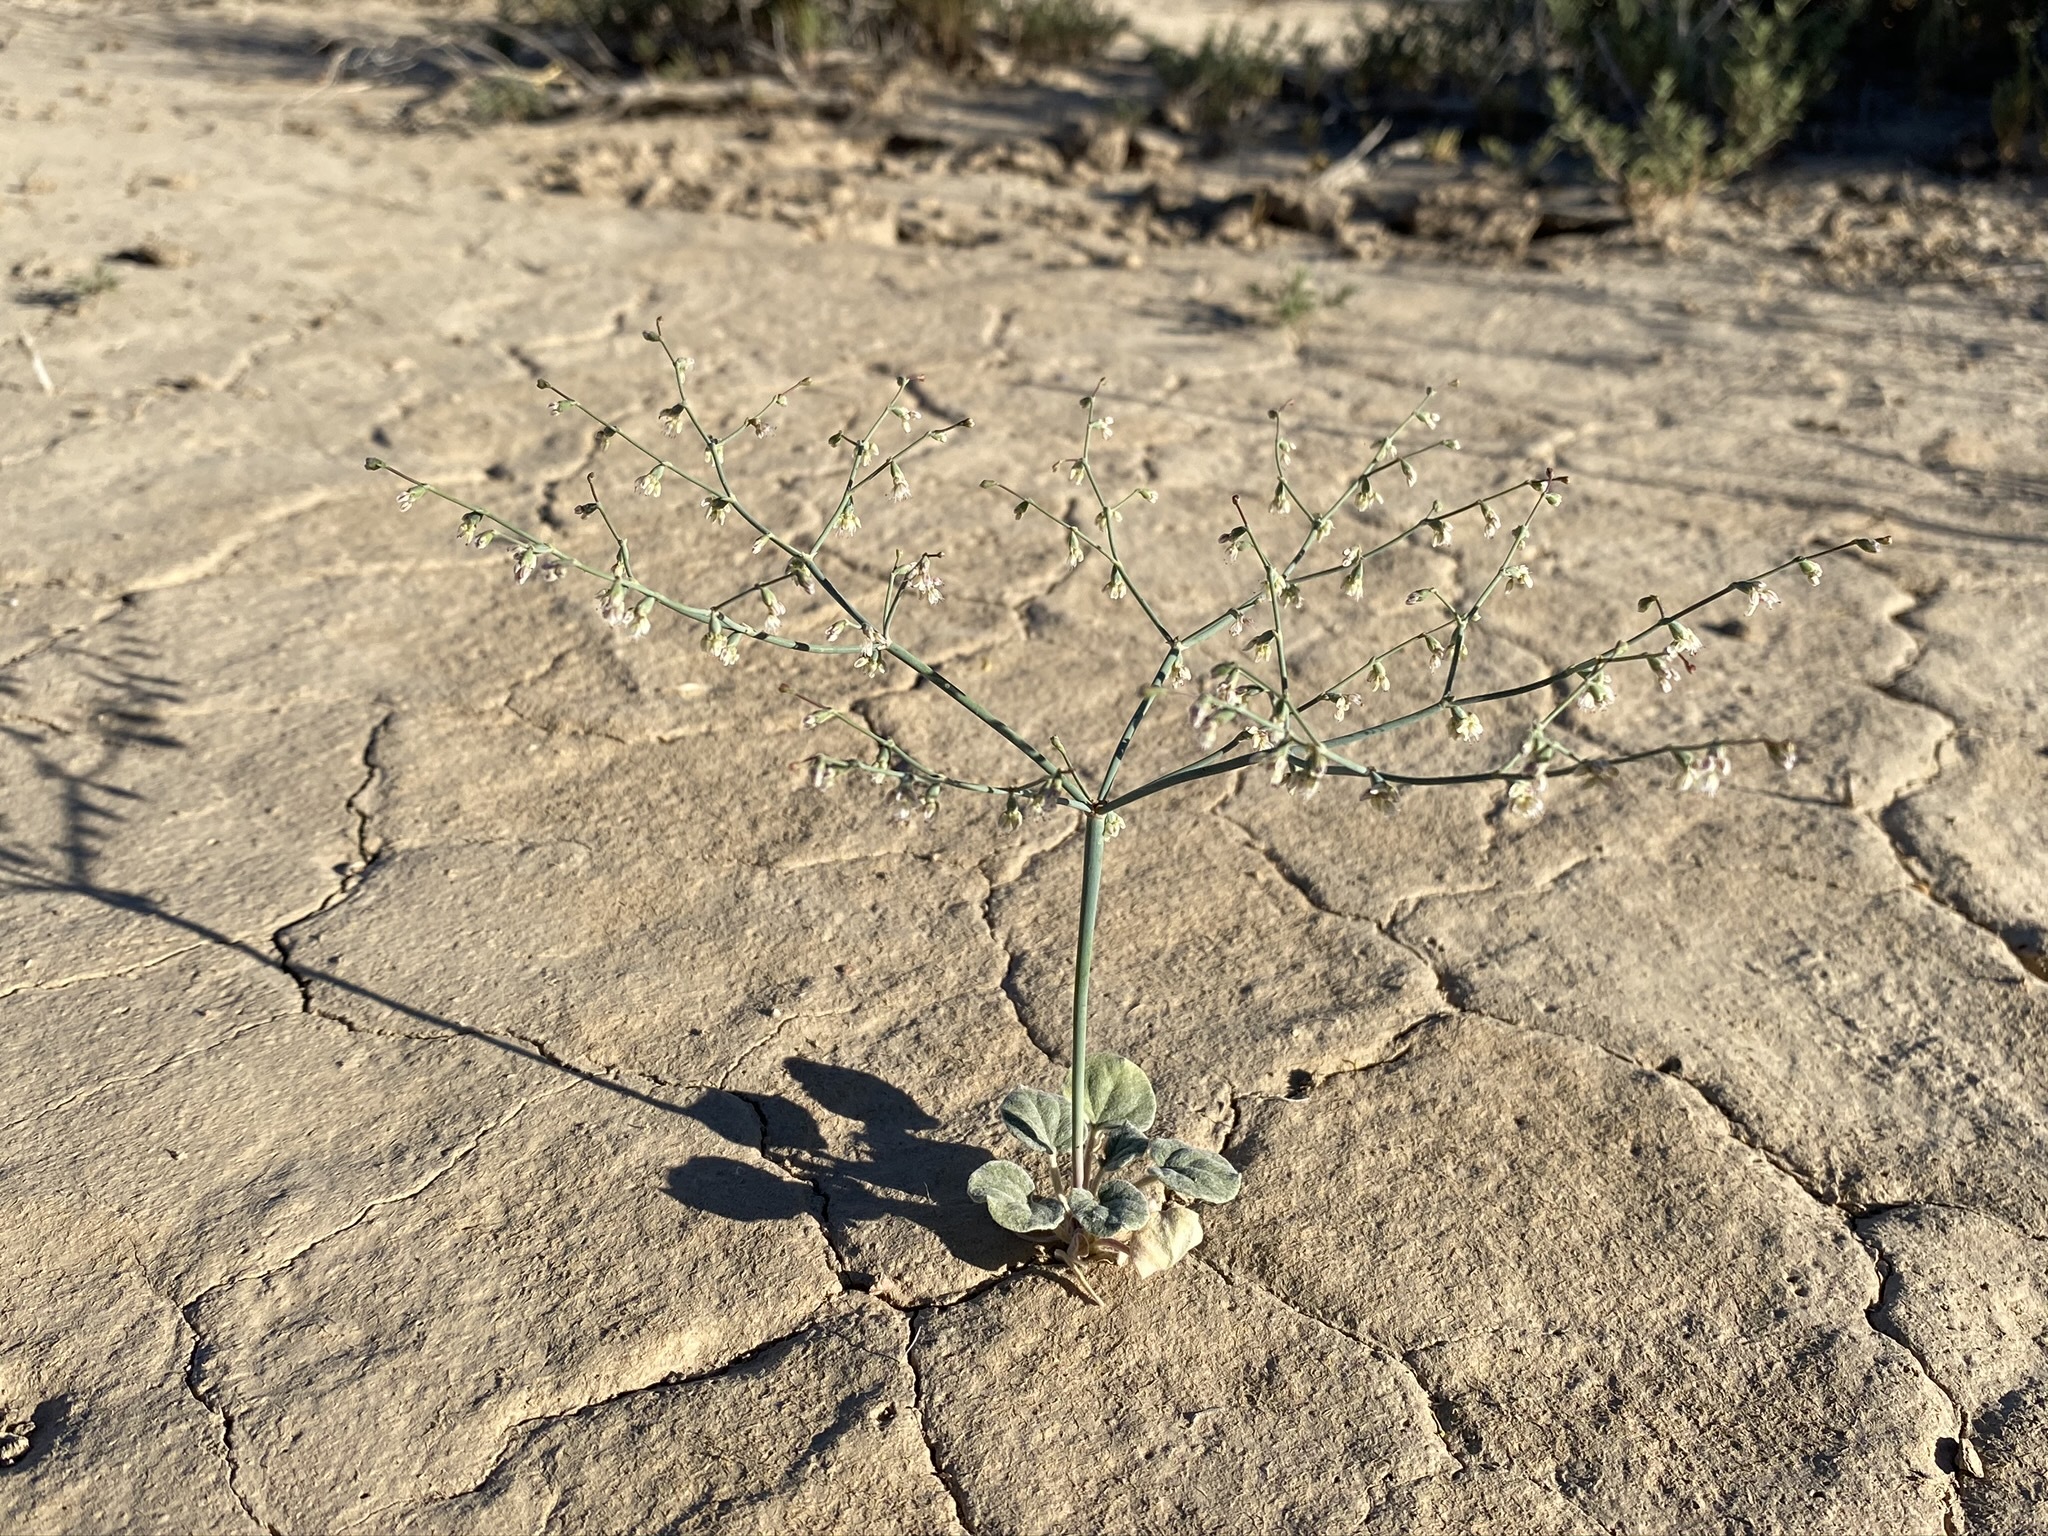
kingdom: Plantae
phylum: Tracheophyta
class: Magnoliopsida
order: Caryophyllales
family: Polygonaceae
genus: Eriogonum
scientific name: Eriogonum deflexum
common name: Skeleton-weed
